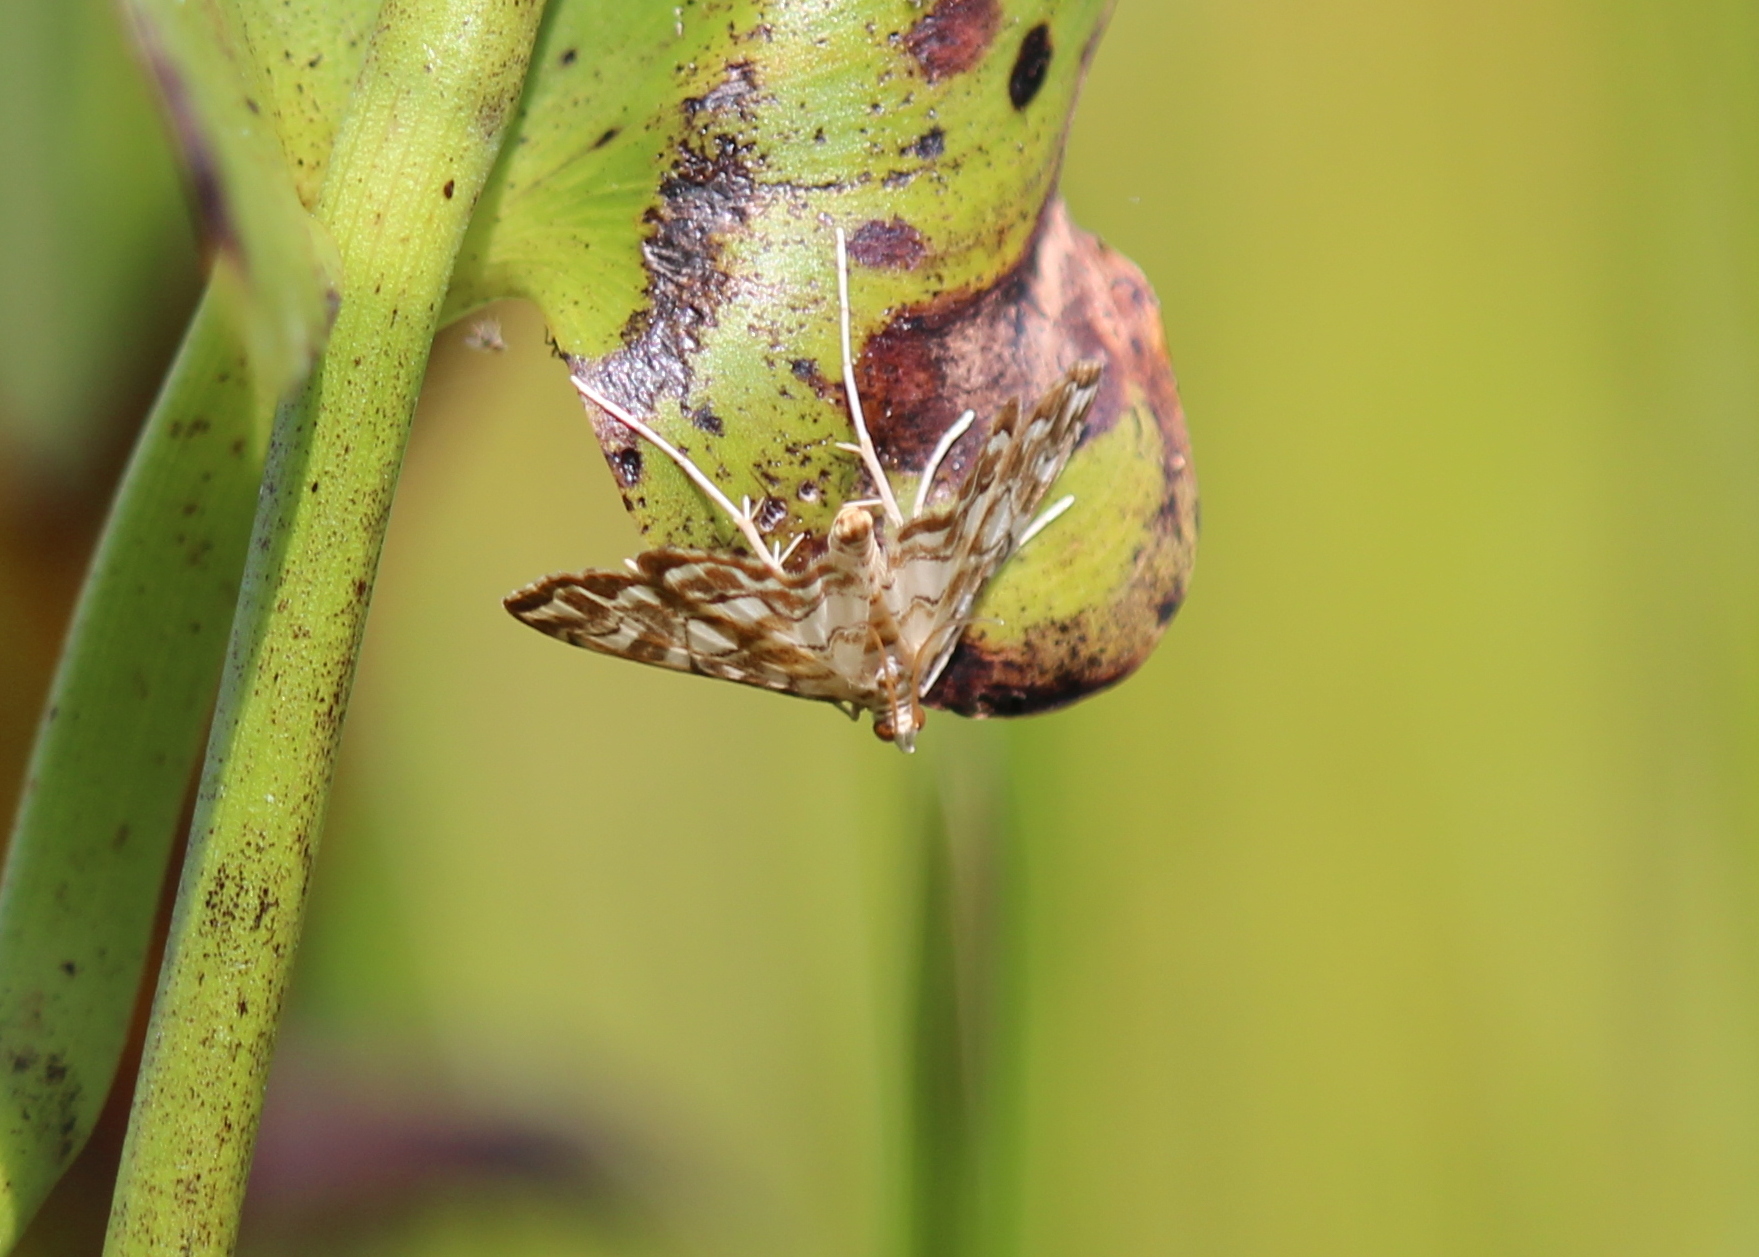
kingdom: Animalia
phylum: Arthropoda
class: Insecta
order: Lepidoptera
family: Crambidae
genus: Elophila
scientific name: Elophila icciusalis
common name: Pondside pyralid moth
